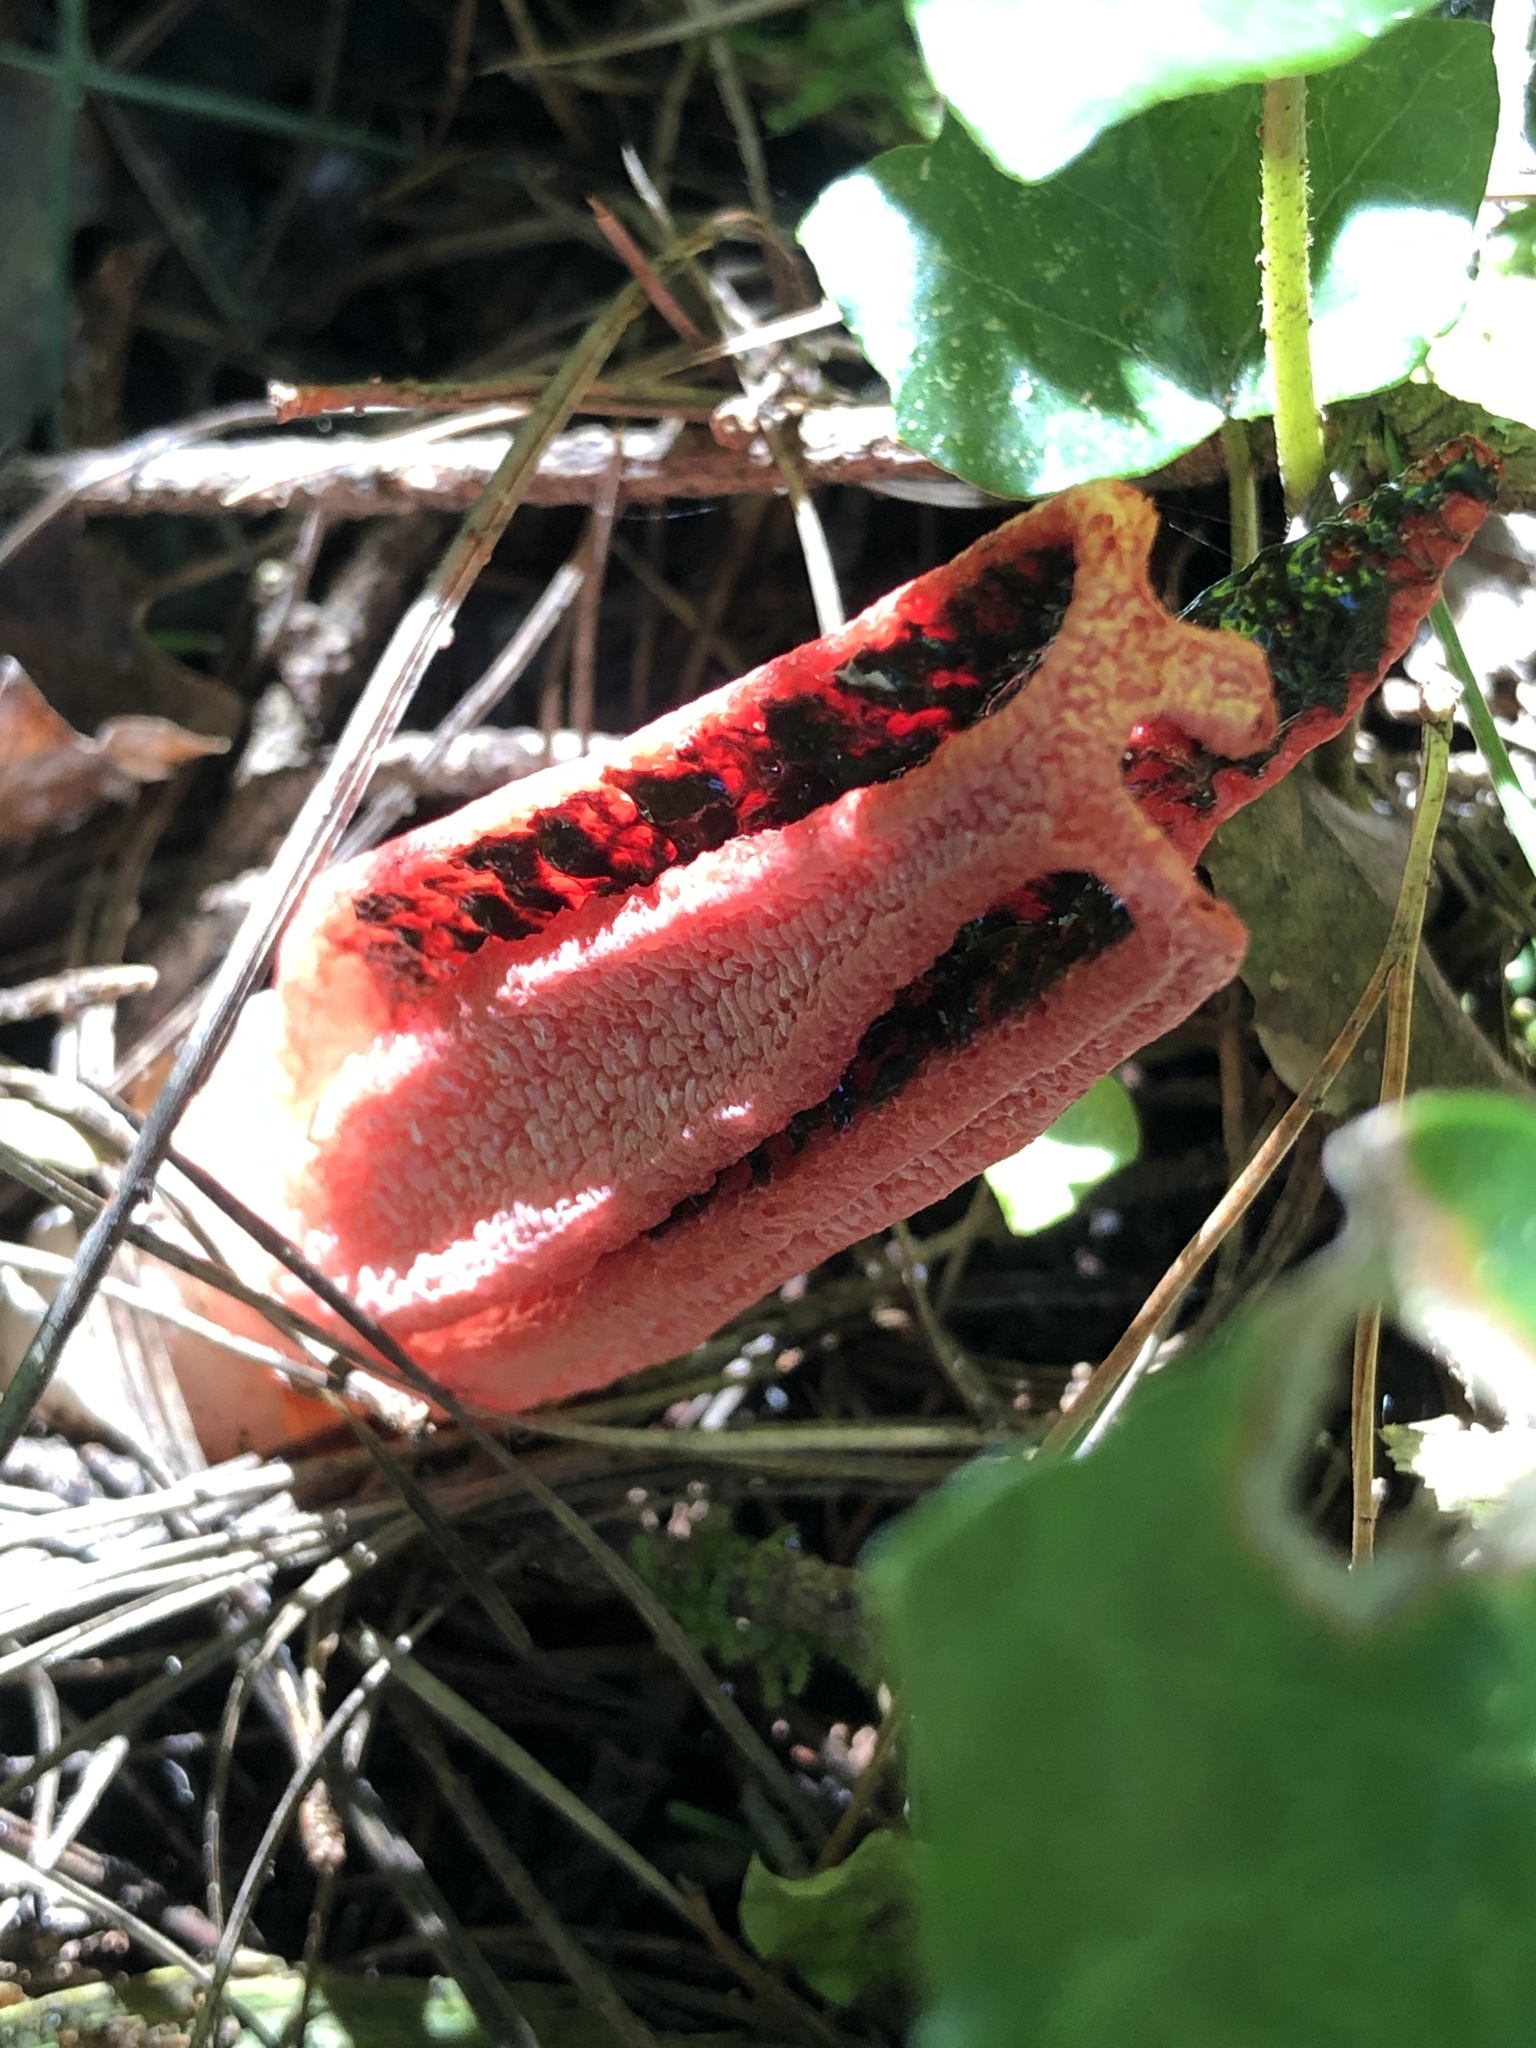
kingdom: Fungi
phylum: Basidiomycota
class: Agaricomycetes
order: Phallales
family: Phallaceae
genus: Clathrus
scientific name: Clathrus archeri
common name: Devil's fingers
